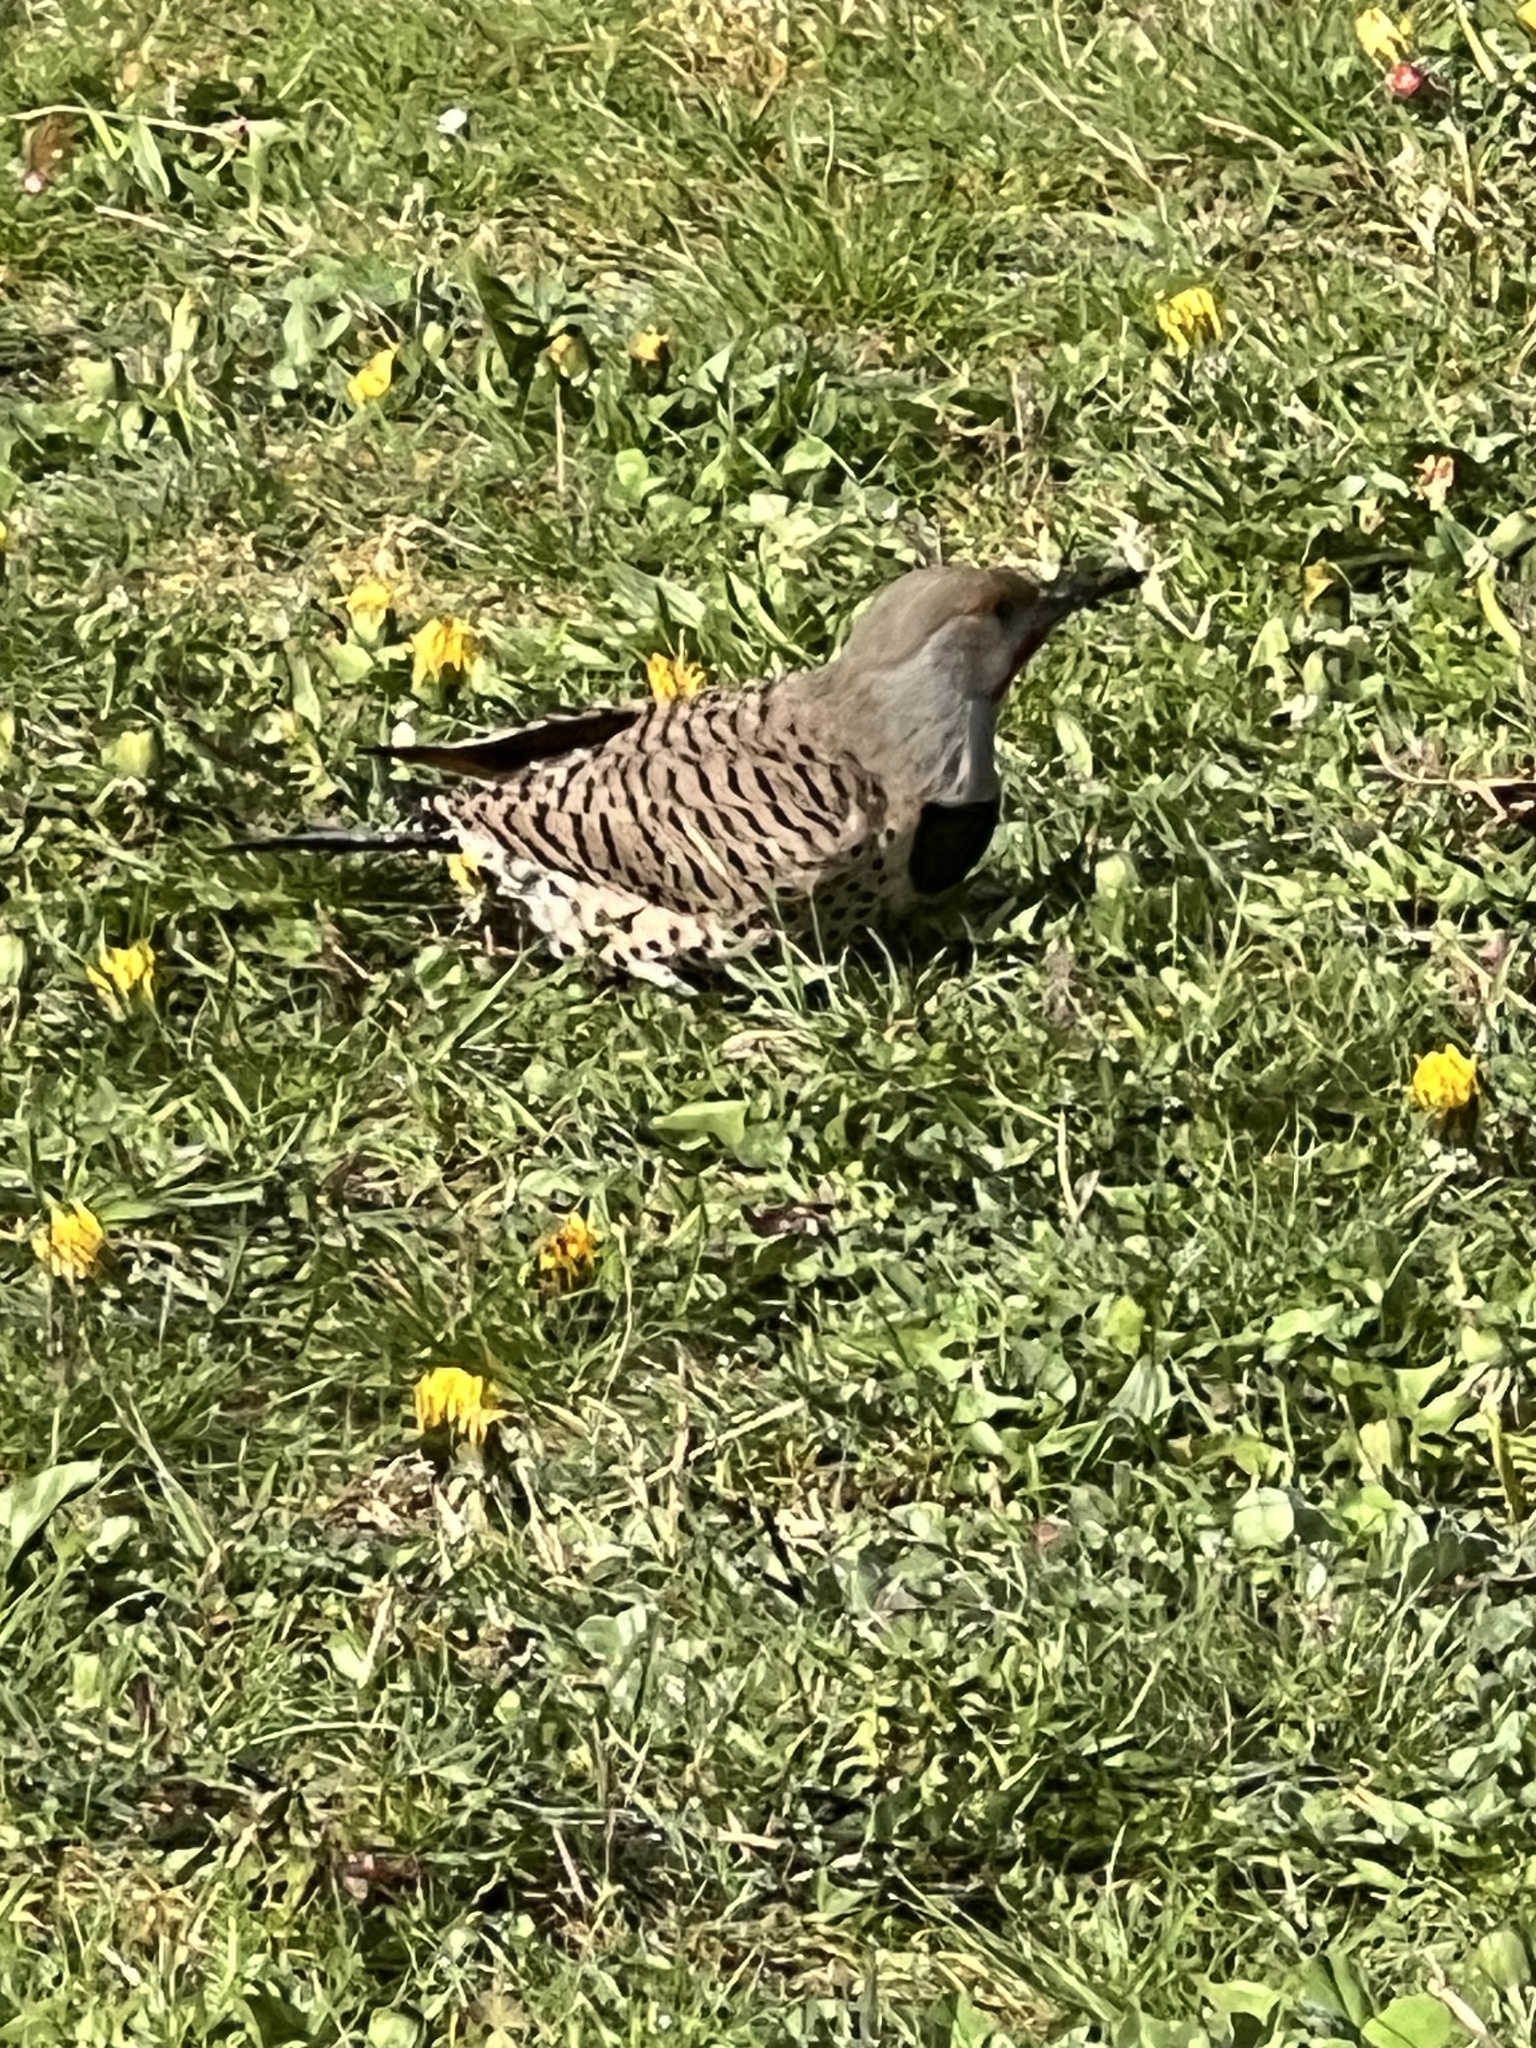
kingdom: Animalia
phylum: Chordata
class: Aves
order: Piciformes
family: Picidae
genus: Colaptes
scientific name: Colaptes auratus
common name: Northern flicker
